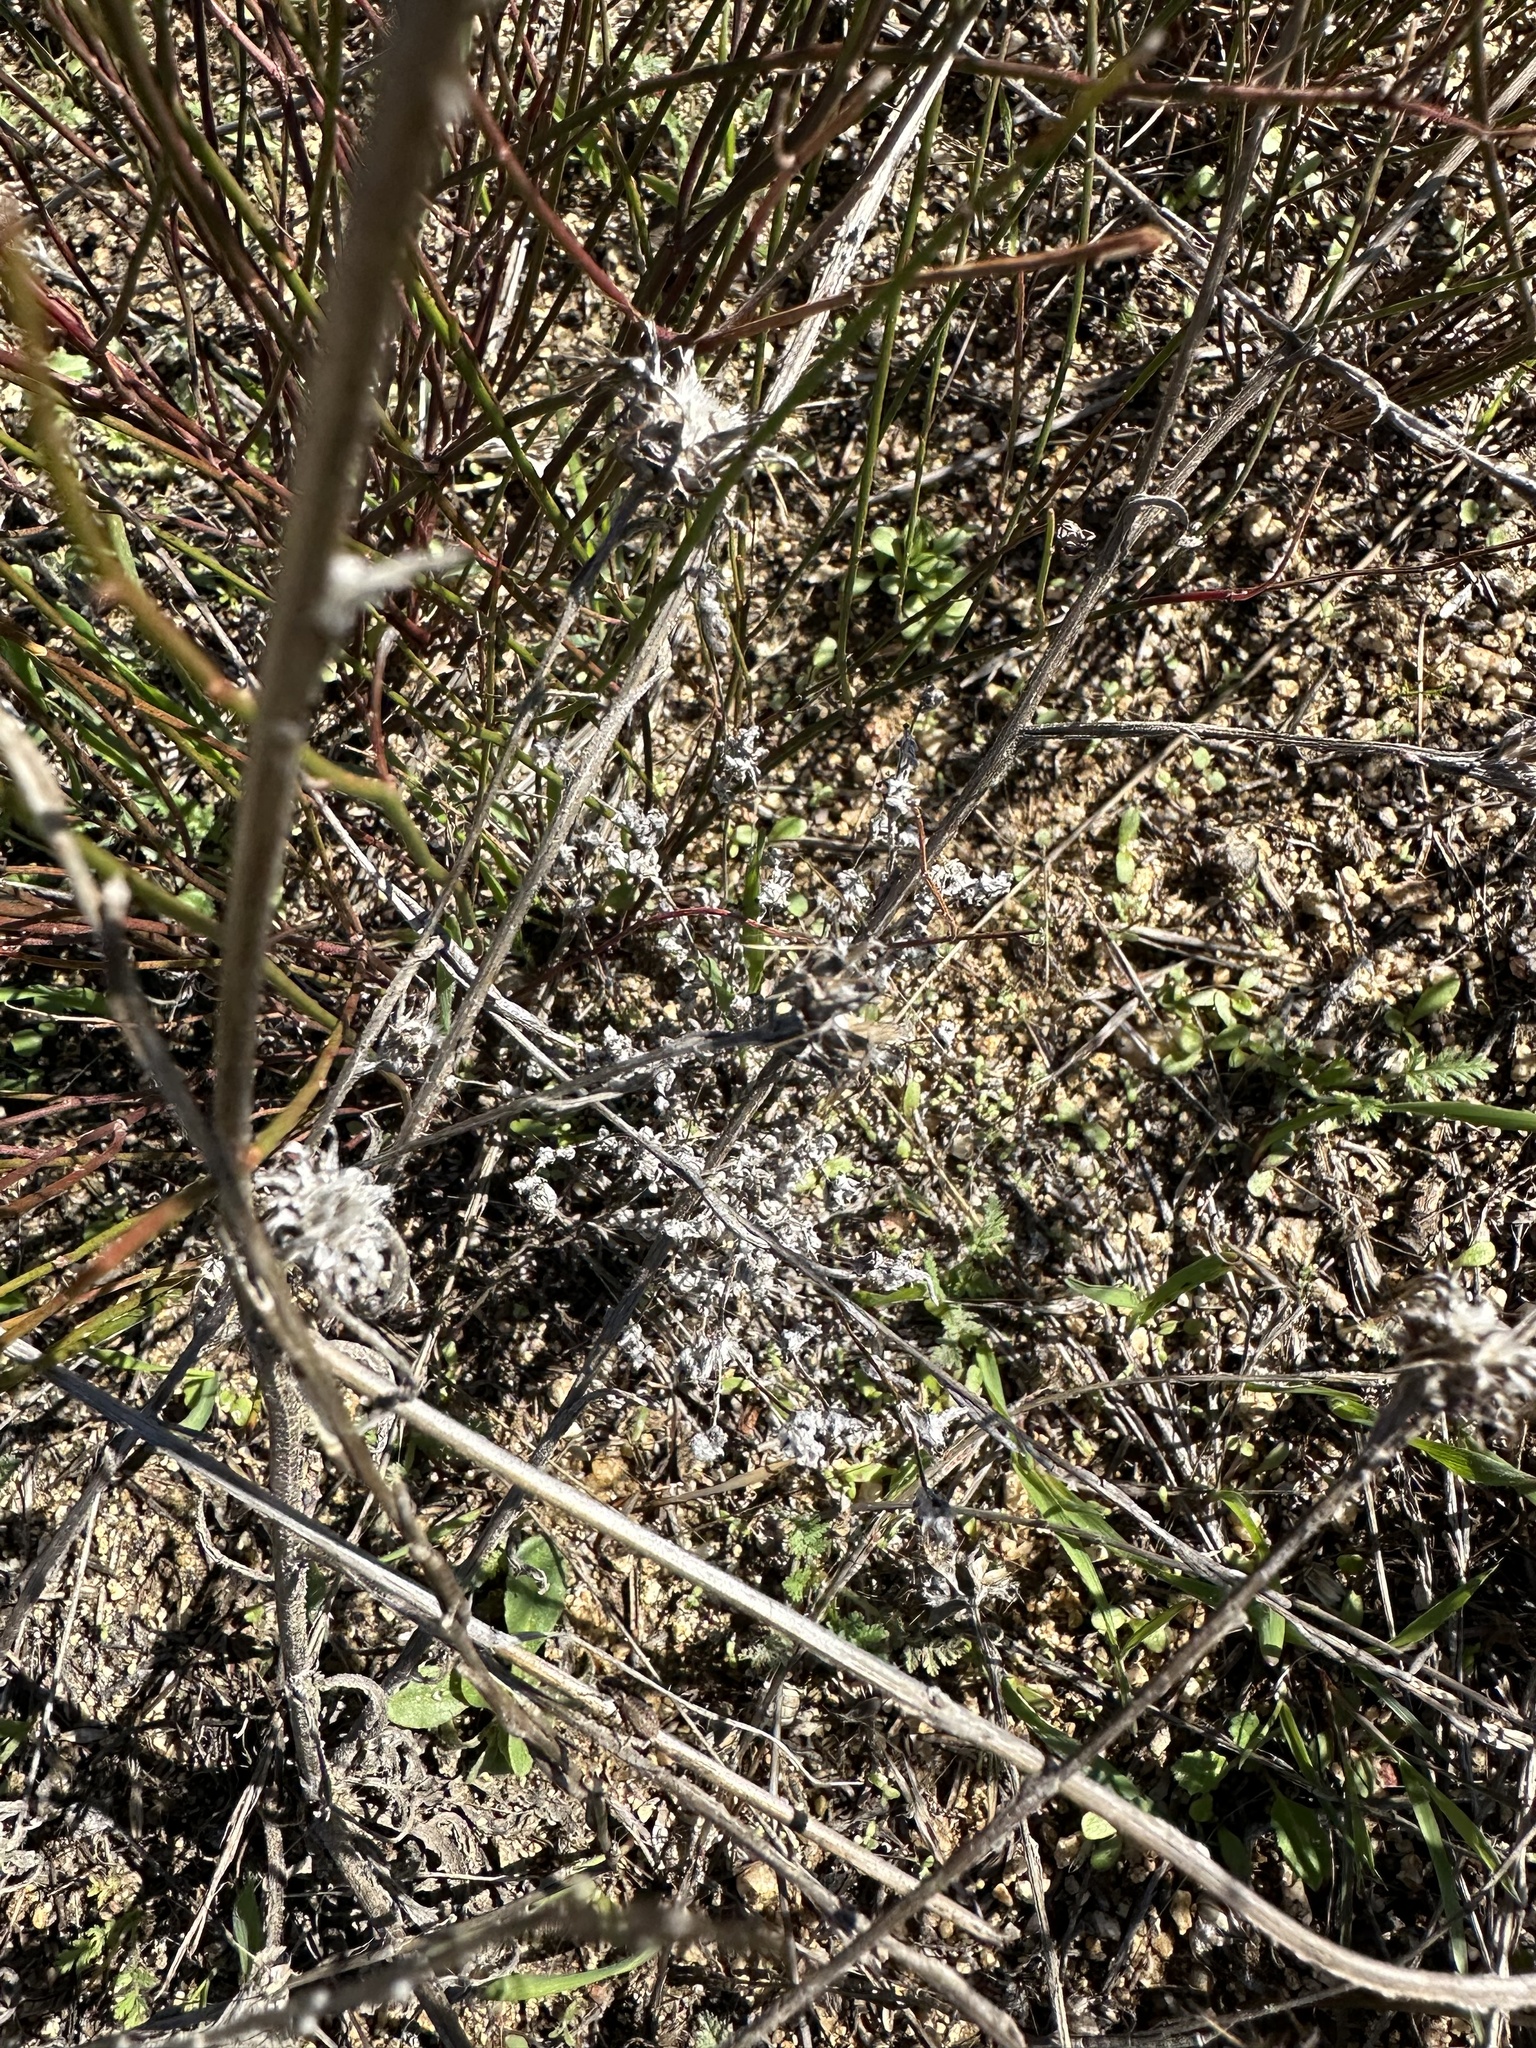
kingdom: Plantae
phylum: Tracheophyta
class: Magnoliopsida
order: Asterales
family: Asteraceae
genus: Centaurea
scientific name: Centaurea melitensis
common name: Maltese star-thistle
